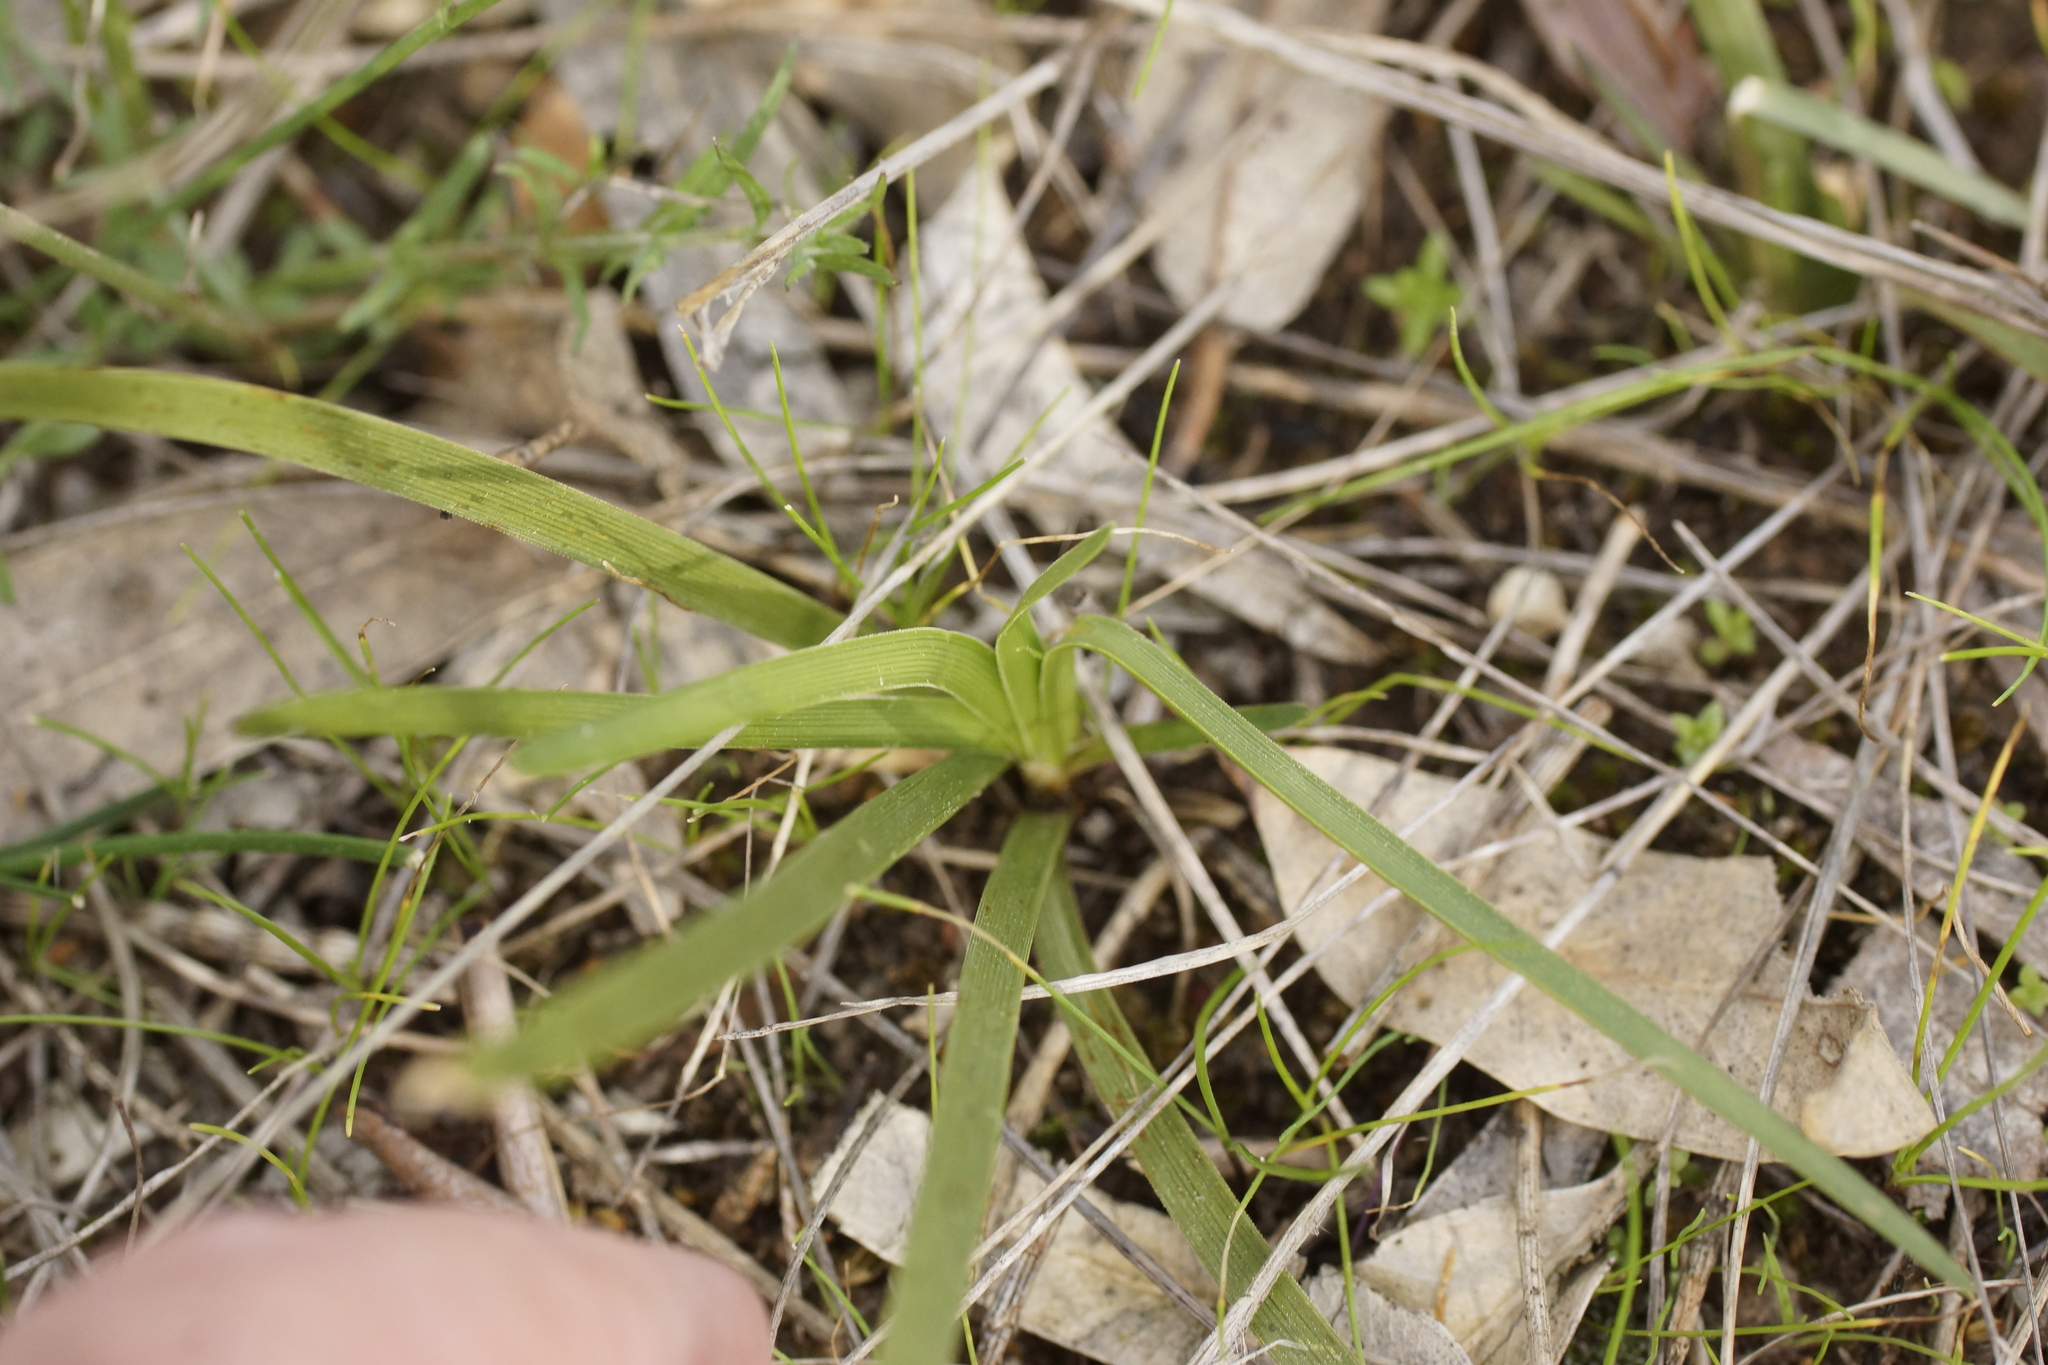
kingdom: Plantae
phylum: Tracheophyta
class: Magnoliopsida
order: Asterales
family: Campanulaceae
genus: Wahlenbergia
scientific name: Wahlenbergia luteola
